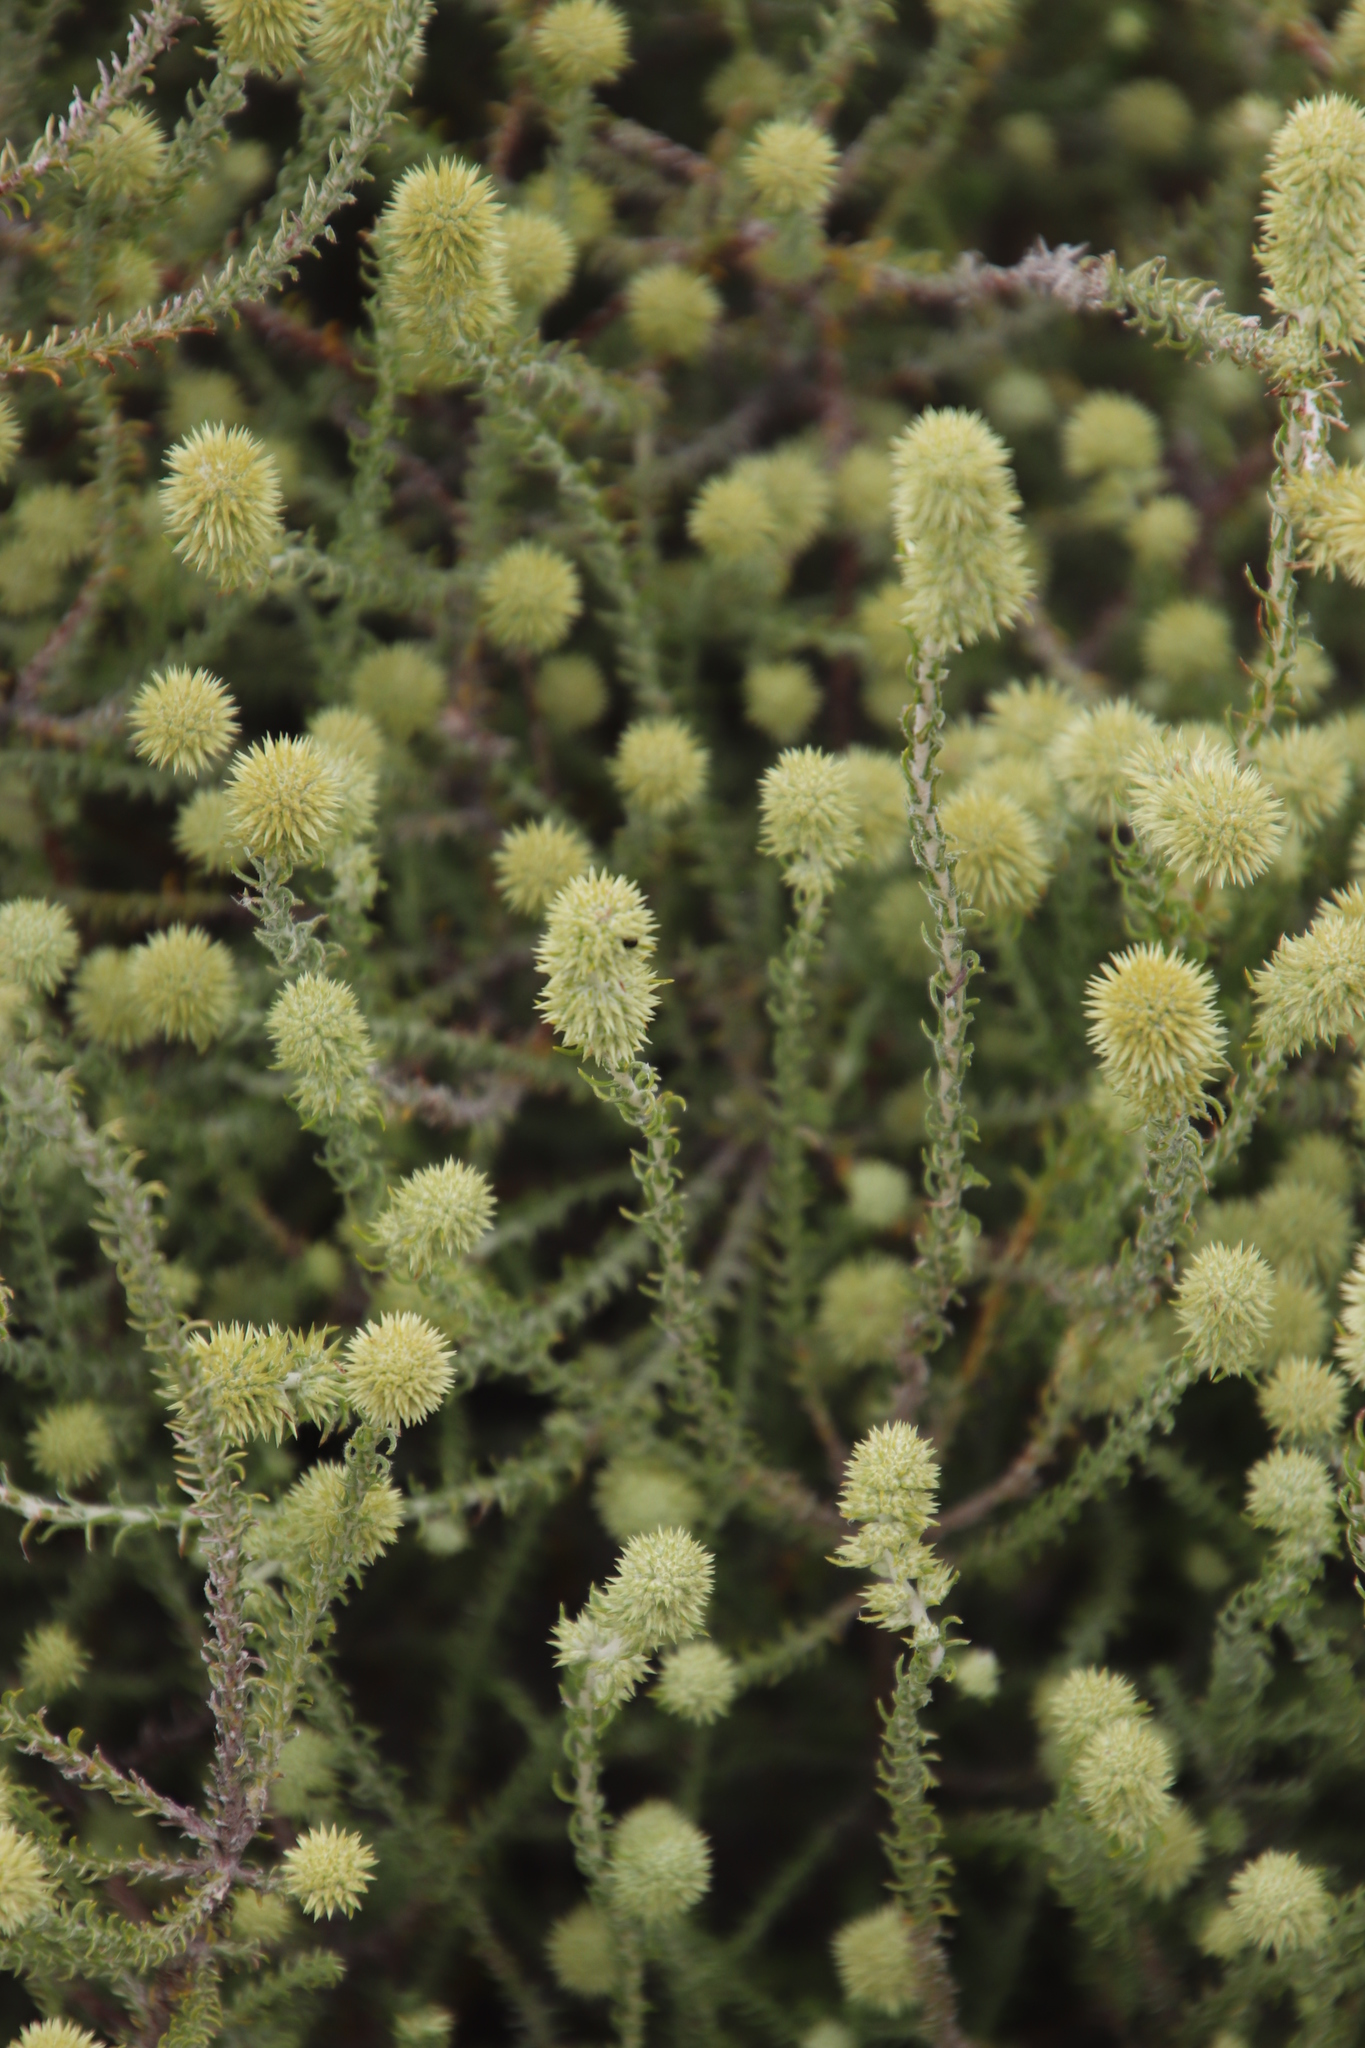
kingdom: Plantae
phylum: Tracheophyta
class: Magnoliopsida
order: Asterales
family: Asteraceae
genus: Seriphium
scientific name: Seriphium cinereum
